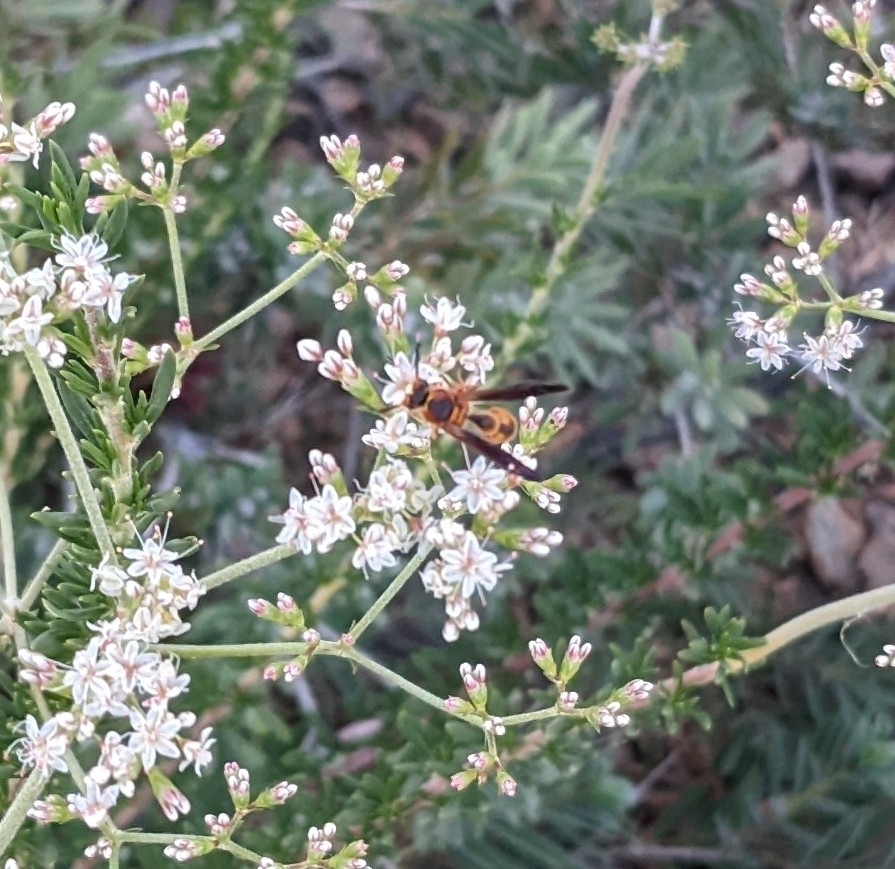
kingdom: Animalia
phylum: Arthropoda
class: Insecta
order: Hymenoptera
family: Vespidae
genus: Eumenes
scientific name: Eumenes bollii
